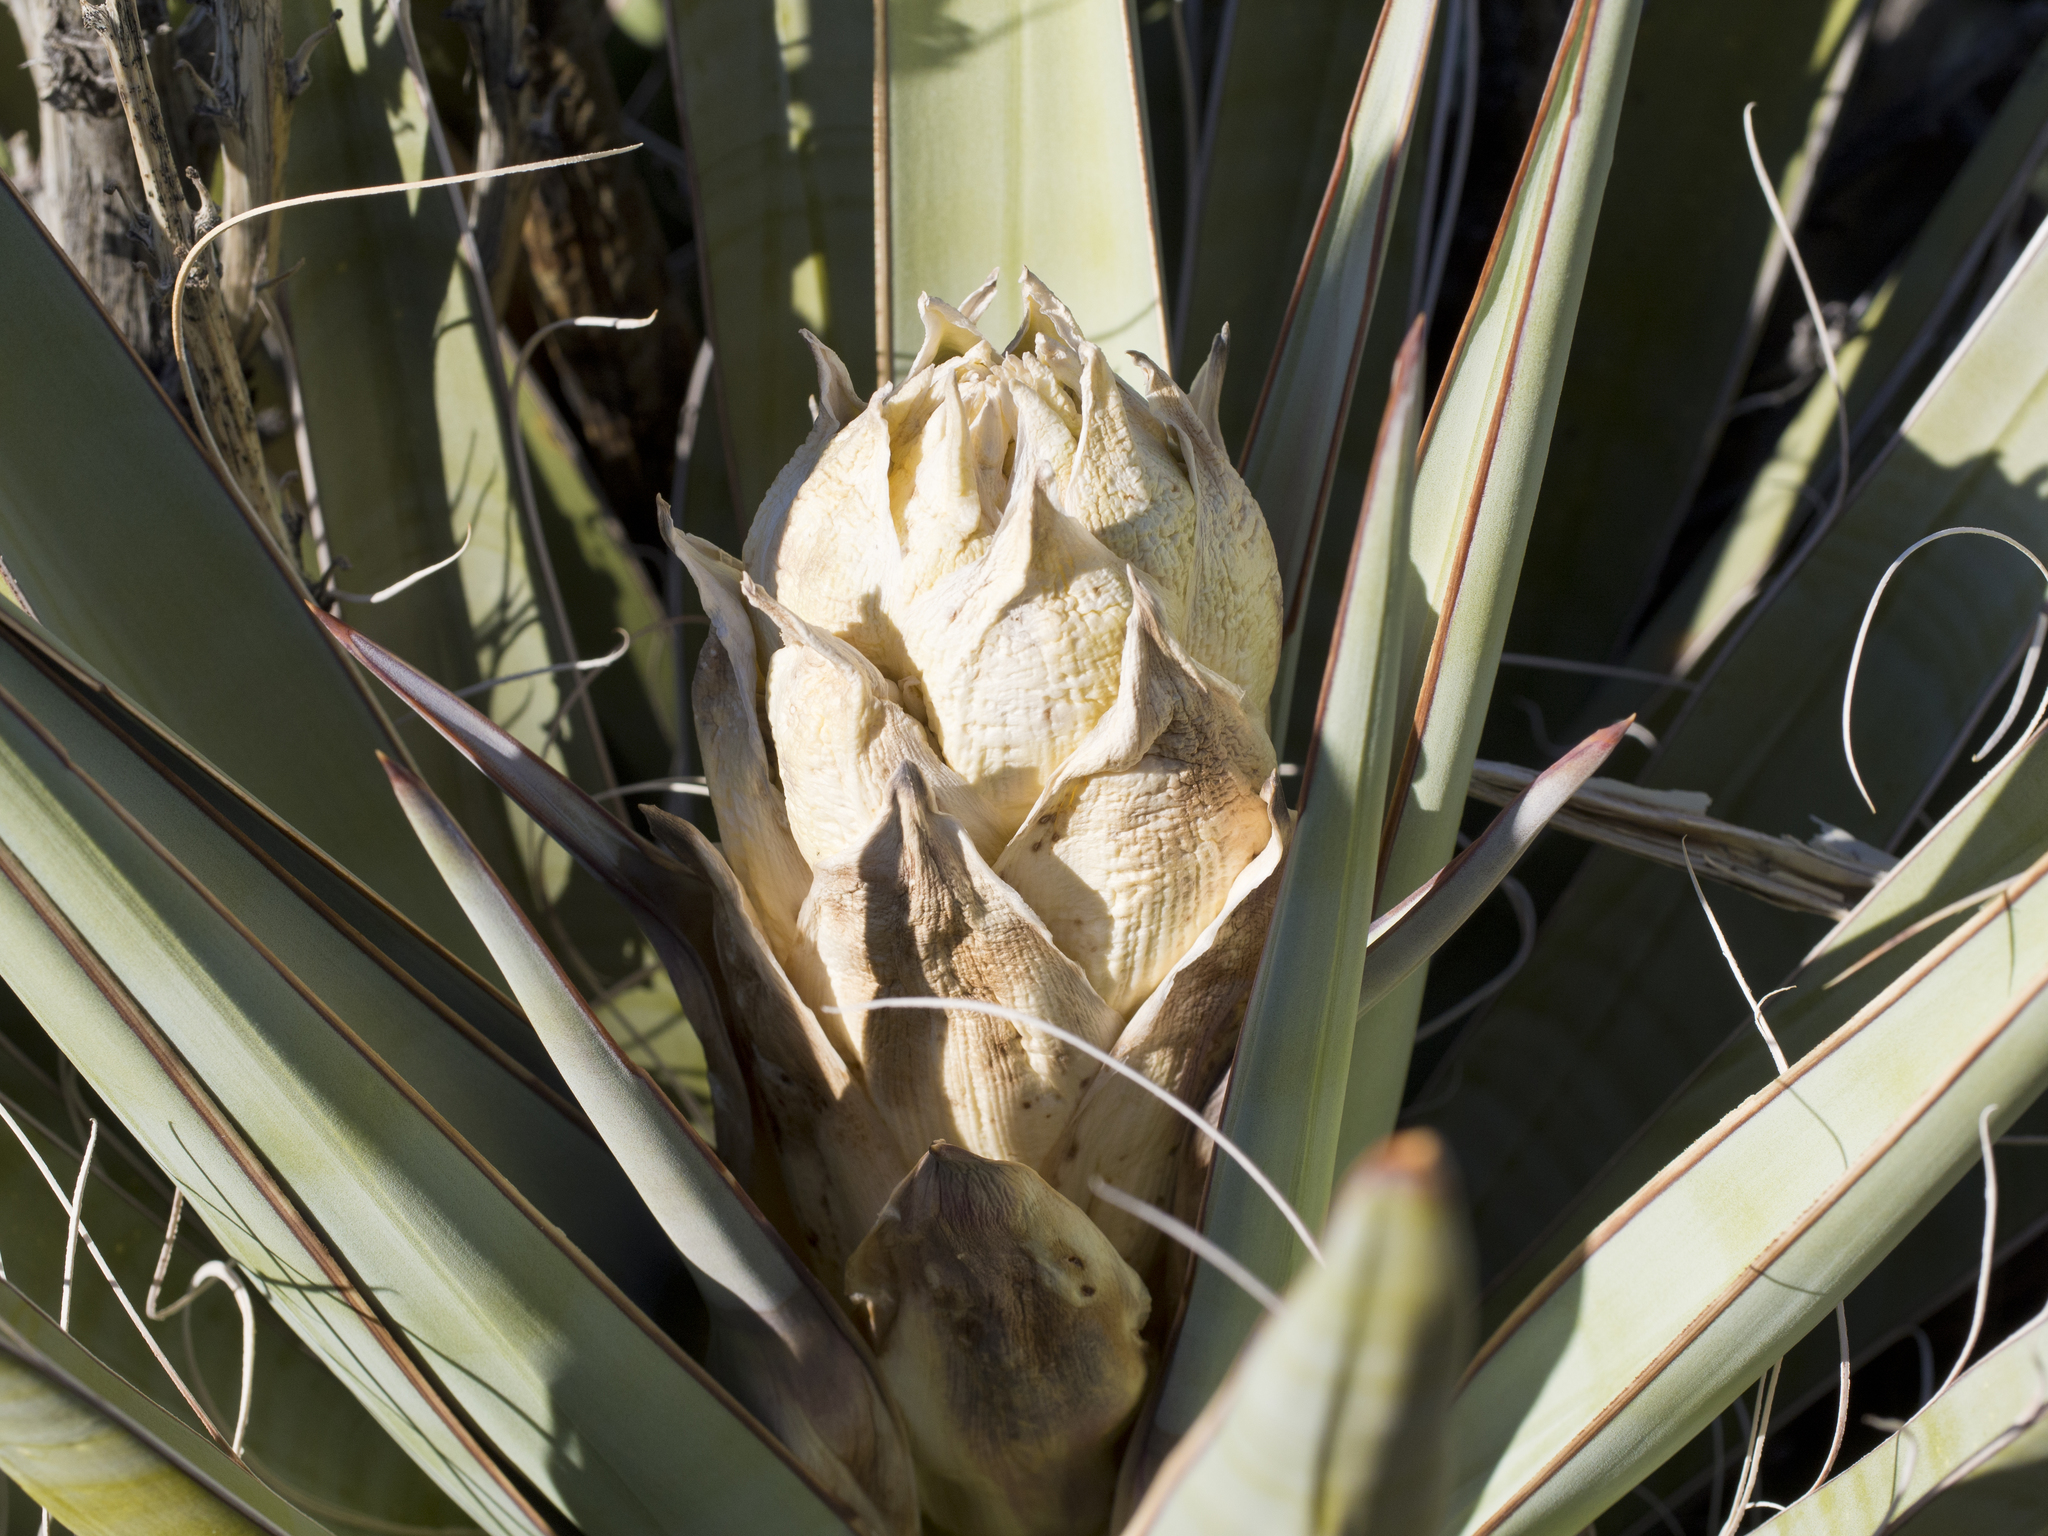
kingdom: Plantae
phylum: Tracheophyta
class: Liliopsida
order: Asparagales
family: Asparagaceae
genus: Yucca
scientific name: Yucca schidigera
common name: Mojave yucca
